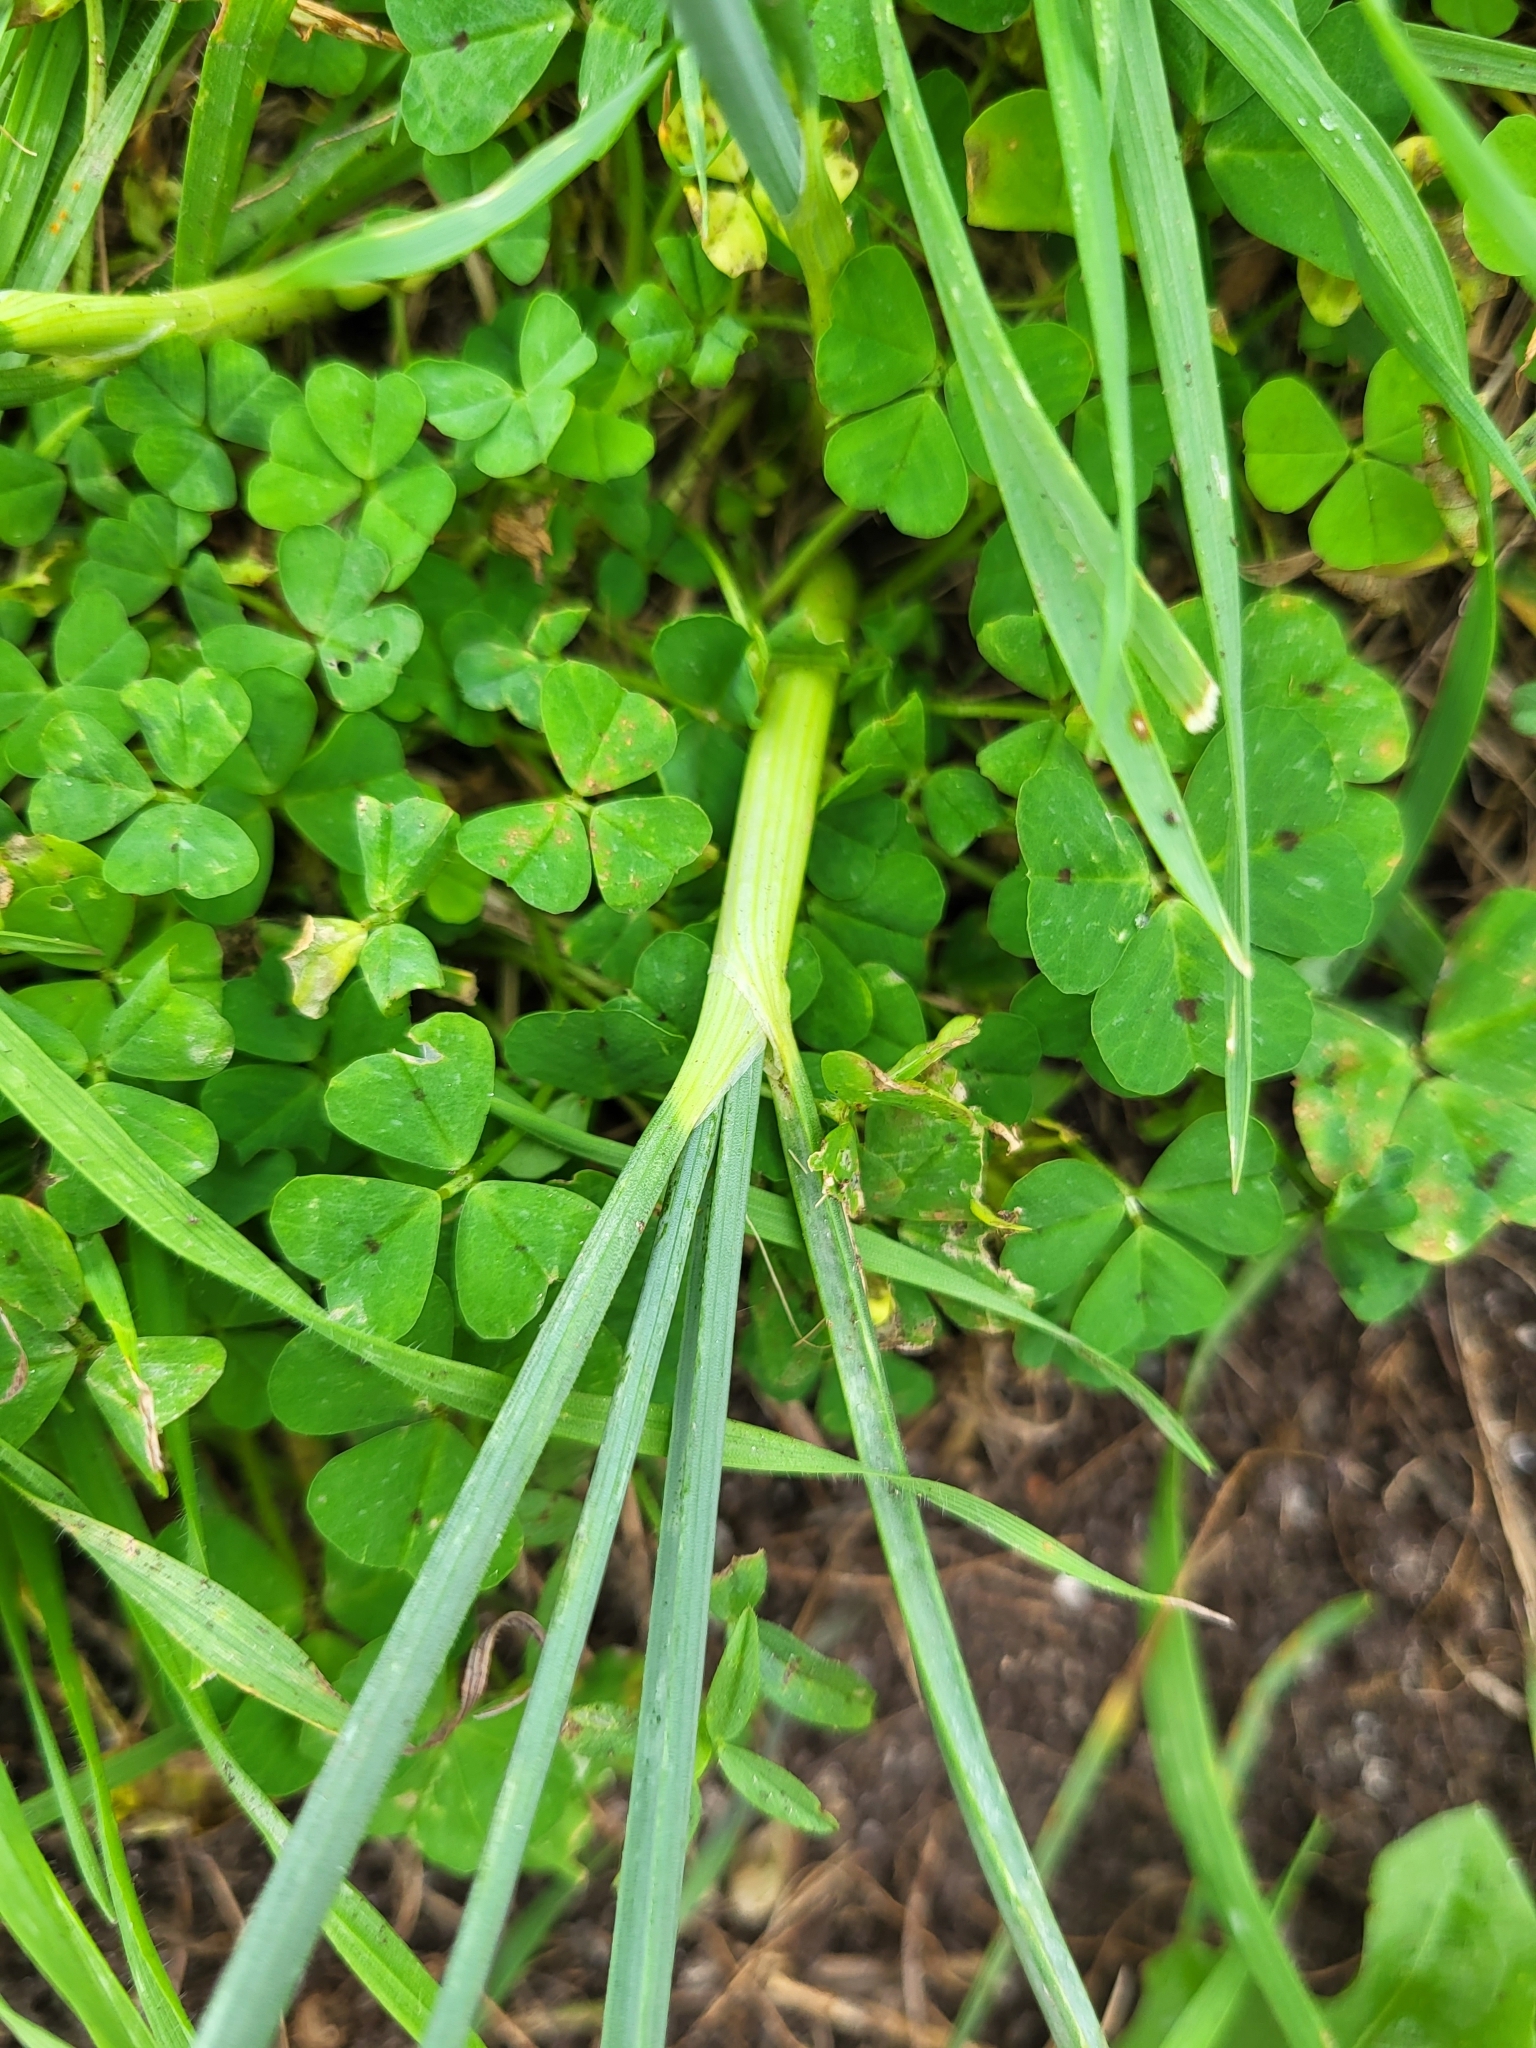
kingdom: Plantae
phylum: Tracheophyta
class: Liliopsida
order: Asparagales
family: Amaryllidaceae
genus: Allium
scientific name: Allium vineale
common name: Crow garlic
